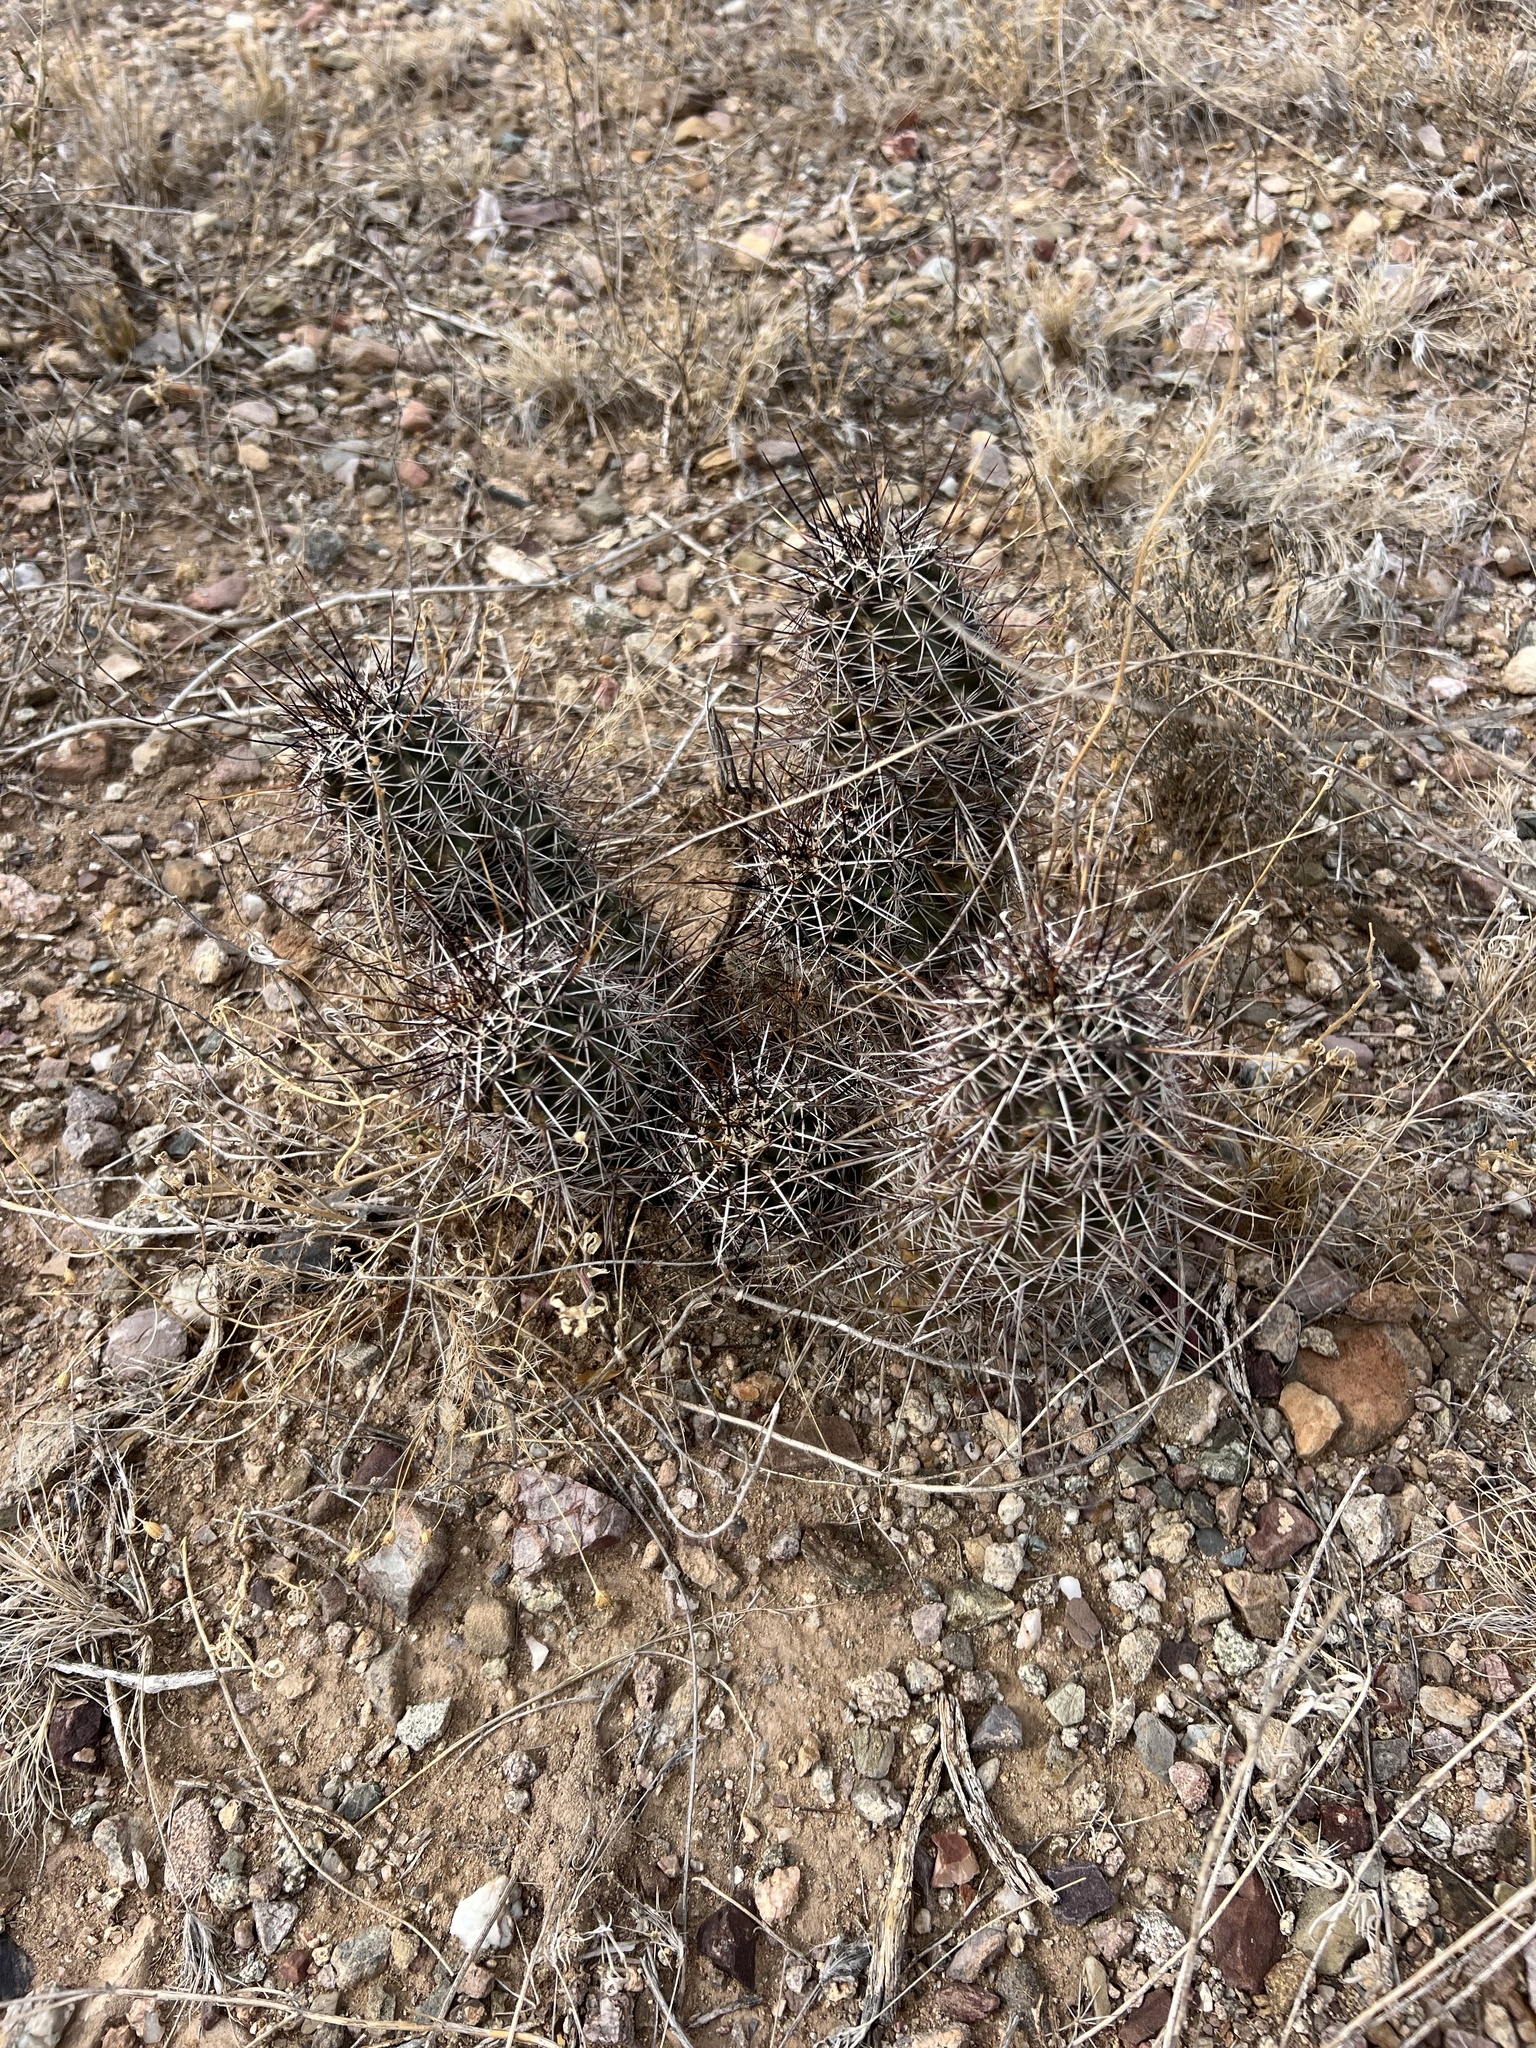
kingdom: Plantae
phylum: Tracheophyta
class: Magnoliopsida
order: Caryophyllales
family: Cactaceae
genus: Echinocereus
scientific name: Echinocereus fasciculatus
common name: Bundle hedgehog
